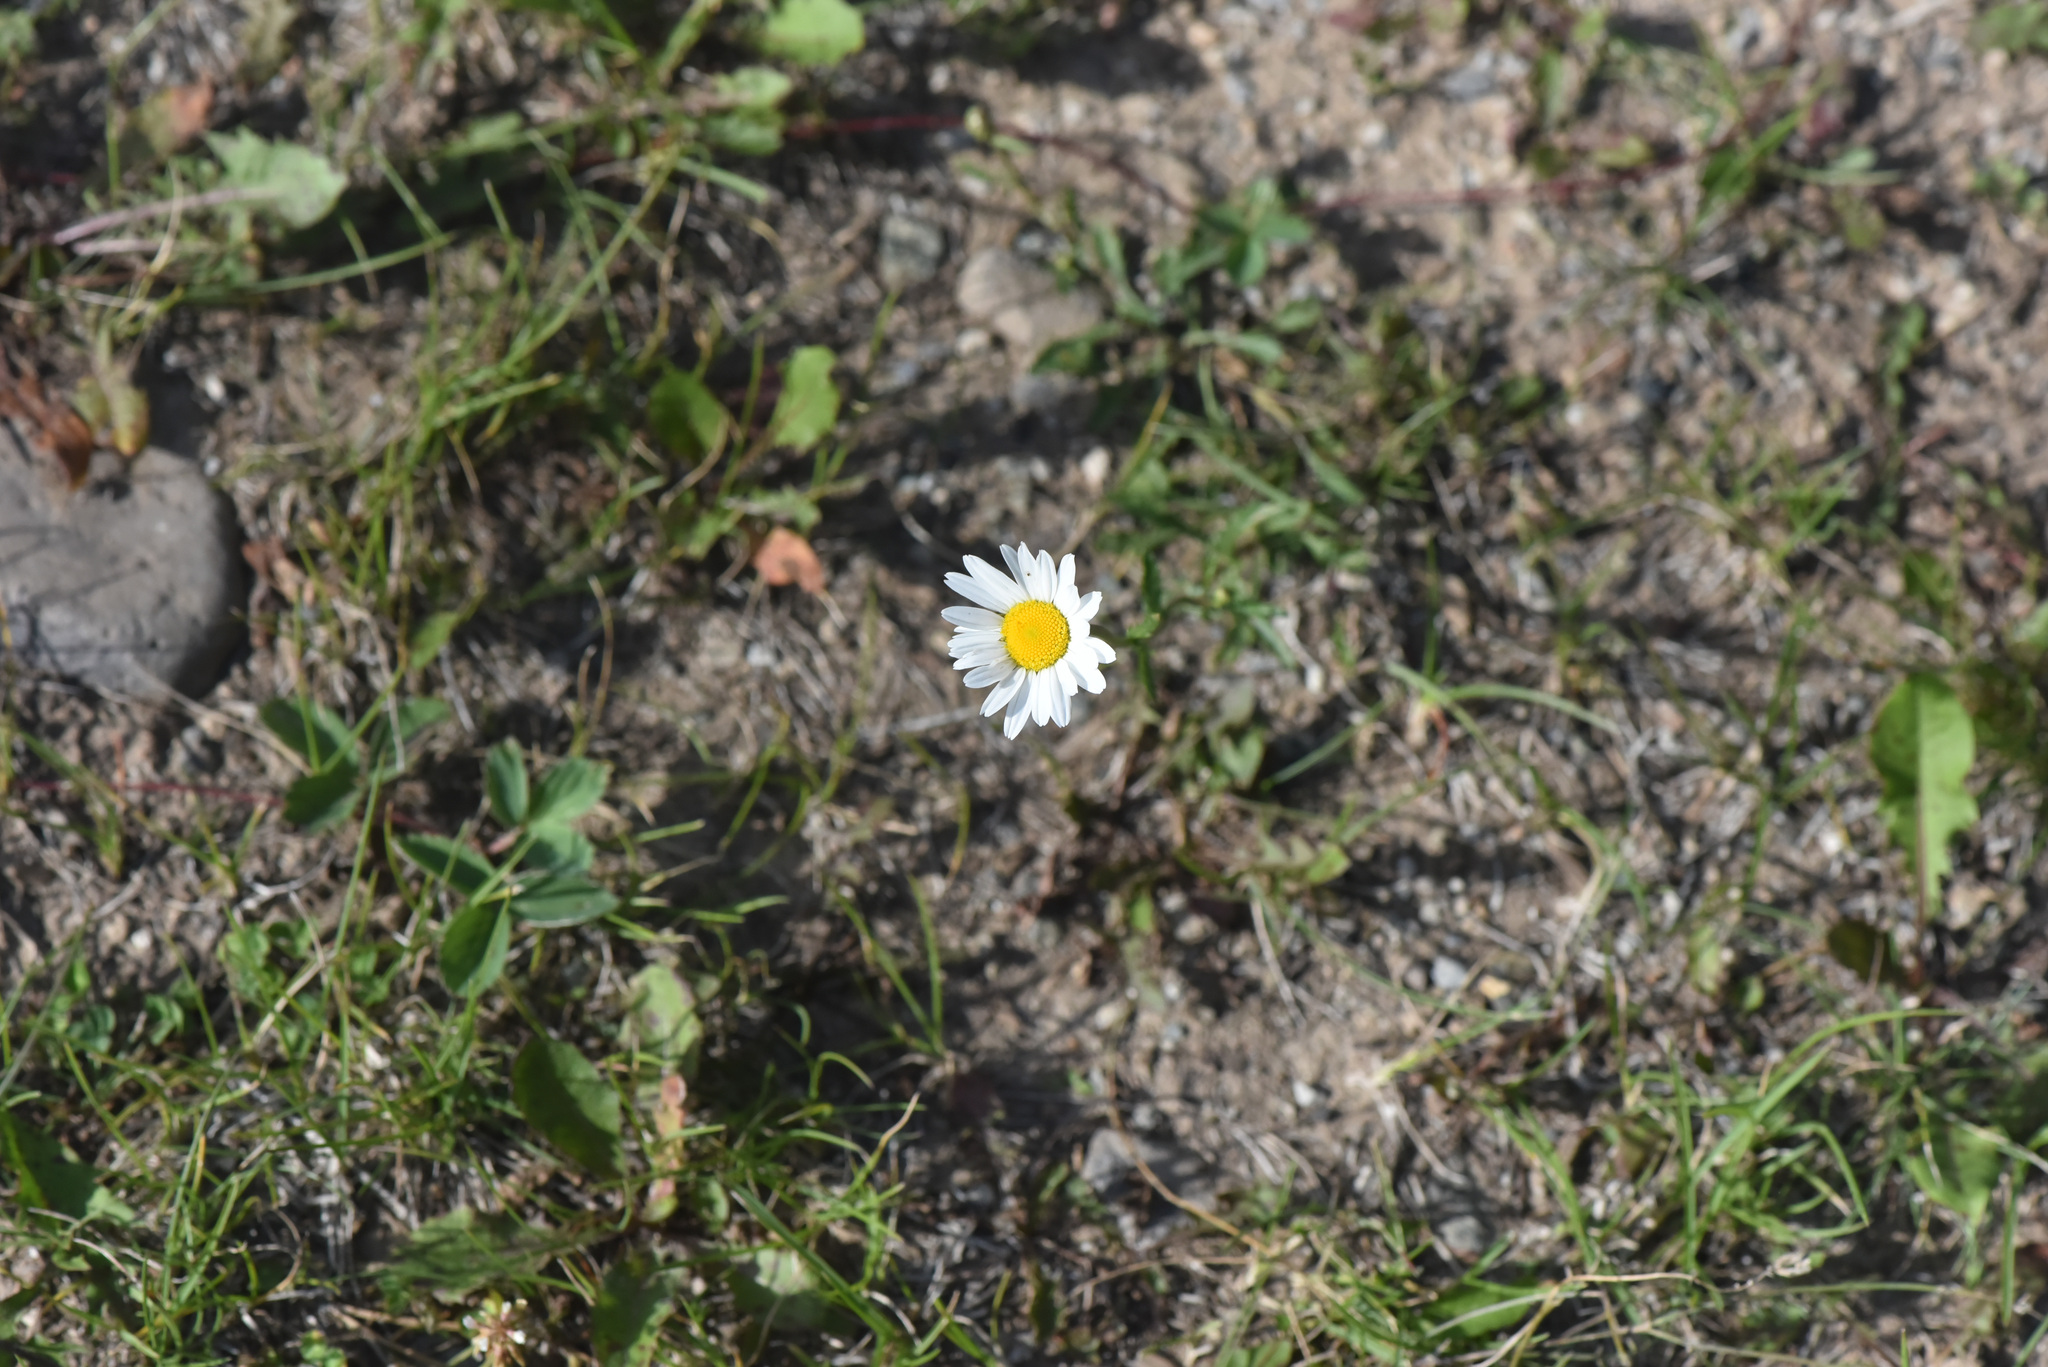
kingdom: Plantae
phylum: Tracheophyta
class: Magnoliopsida
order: Asterales
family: Asteraceae
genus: Leucanthemum
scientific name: Leucanthemum vulgare
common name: Oxeye daisy
